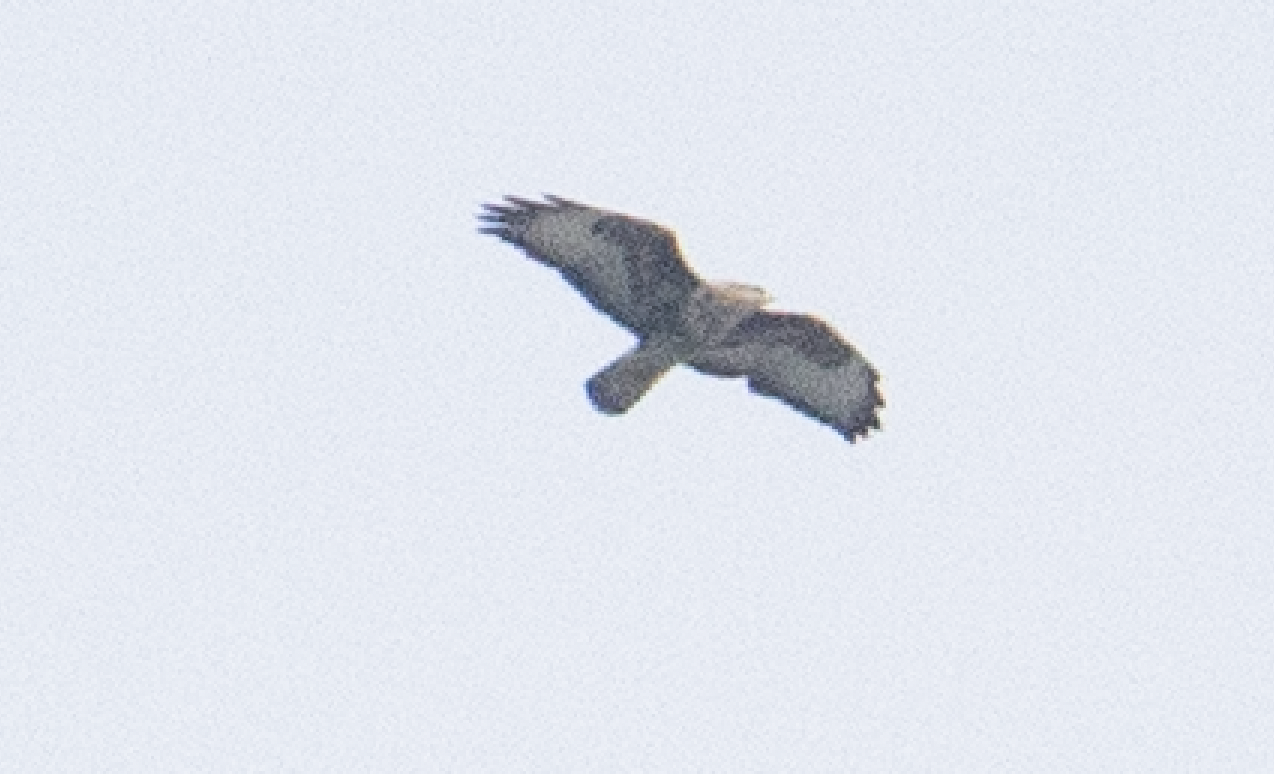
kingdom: Animalia
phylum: Chordata
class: Aves
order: Accipitriformes
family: Accipitridae
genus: Buteo
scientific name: Buteo buteo
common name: Common buzzard
